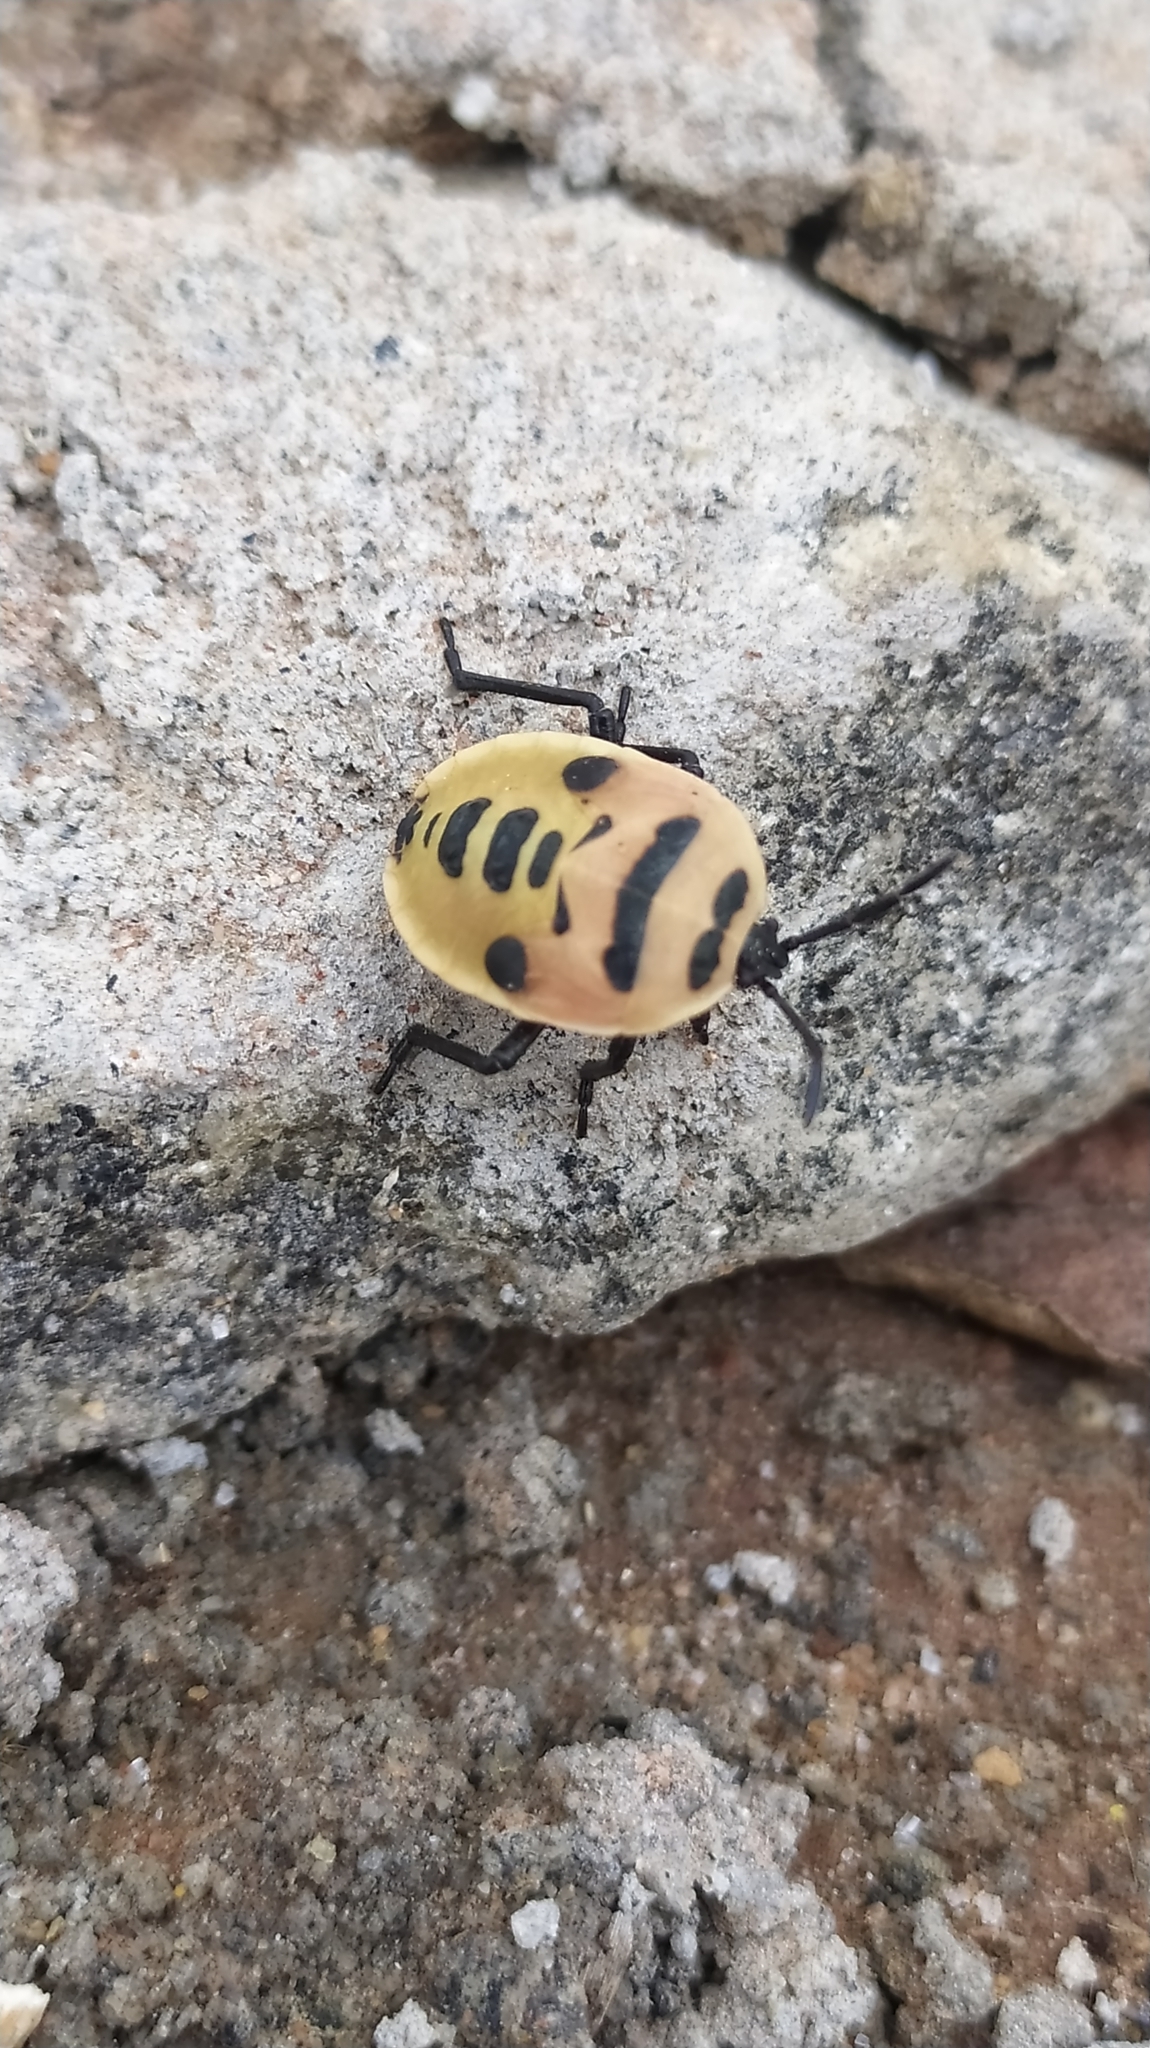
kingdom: Animalia
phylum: Arthropoda
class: Insecta
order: Hemiptera
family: Dinidoridae
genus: Coridius
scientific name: Coridius ianus
